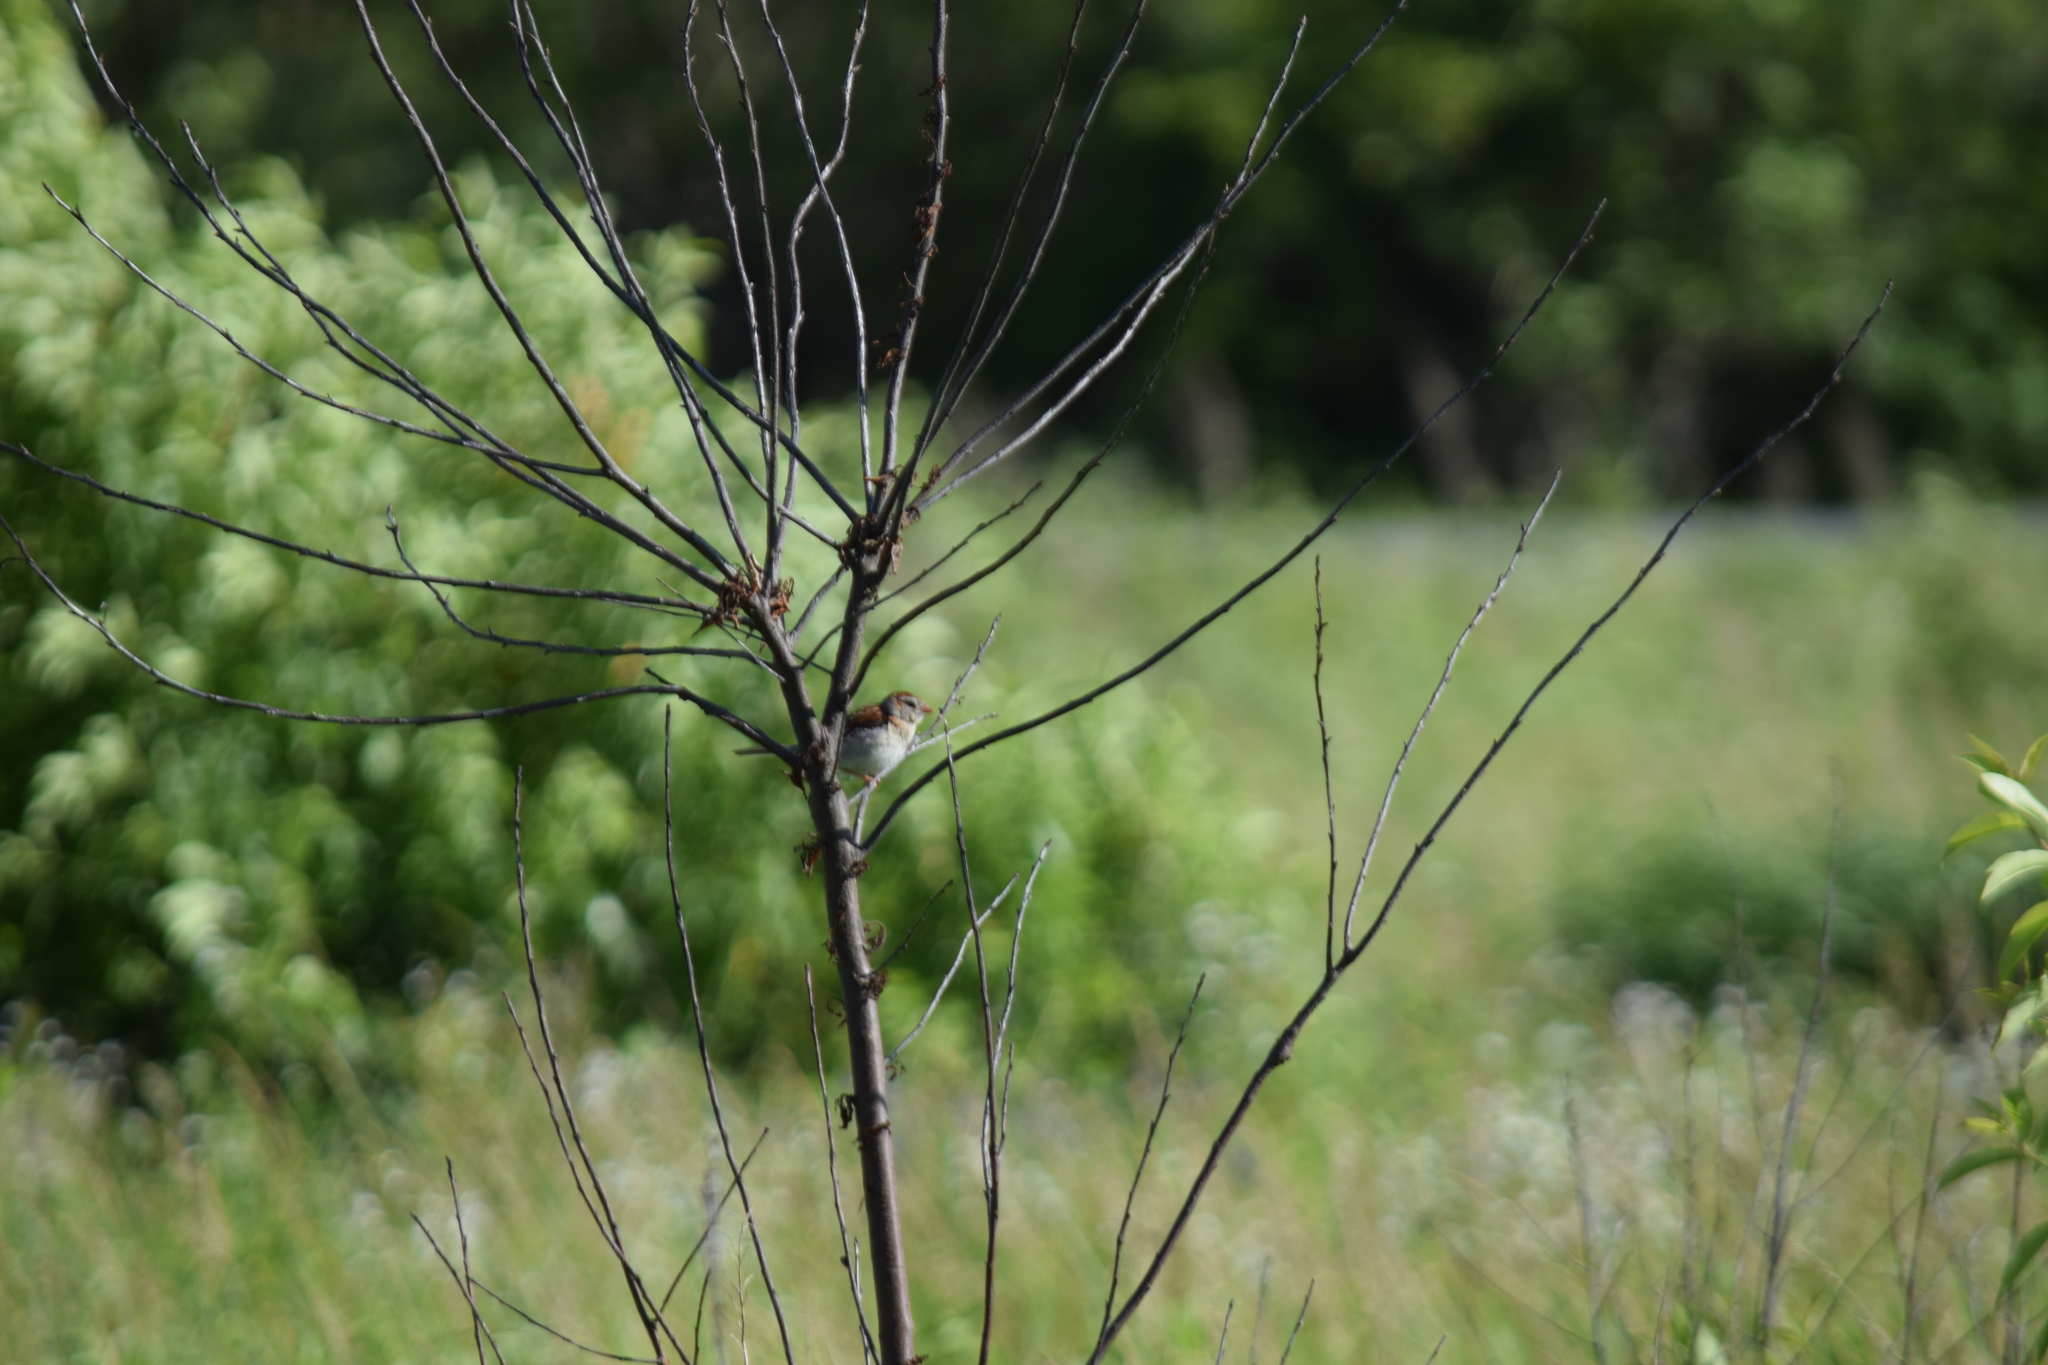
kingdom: Animalia
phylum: Chordata
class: Aves
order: Passeriformes
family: Passerellidae
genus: Spizella
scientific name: Spizella pusilla
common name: Field sparrow
